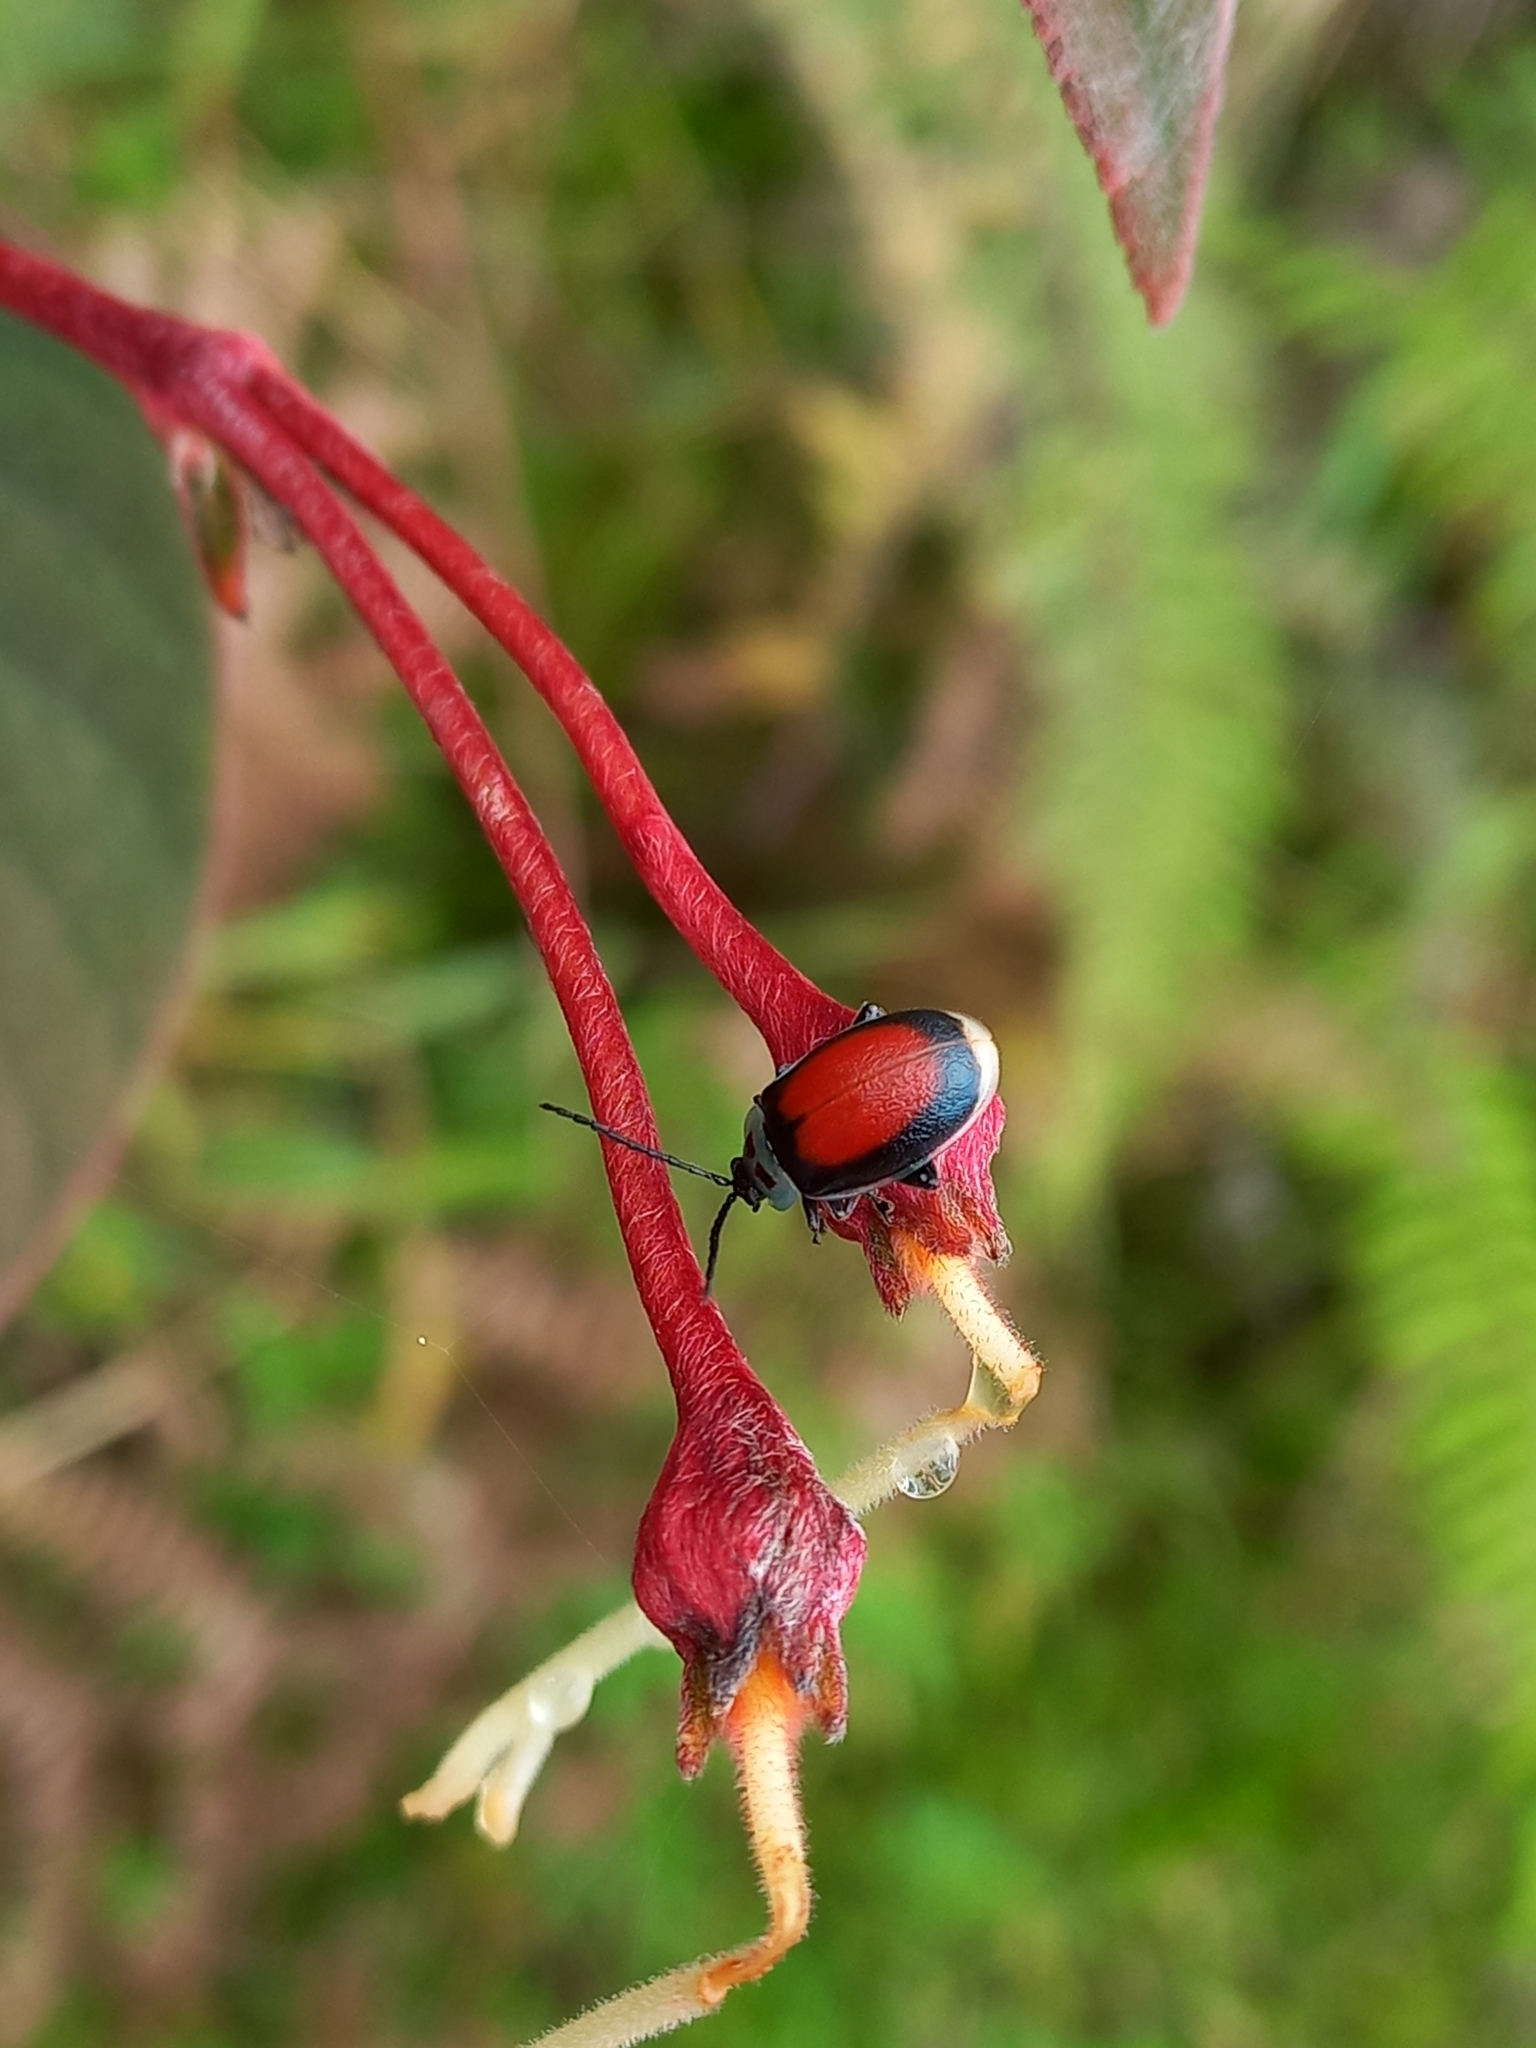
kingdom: Animalia
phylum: Arthropoda
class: Insecta
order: Coleoptera
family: Chrysomelidae
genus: Aspicela
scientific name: Aspicela
